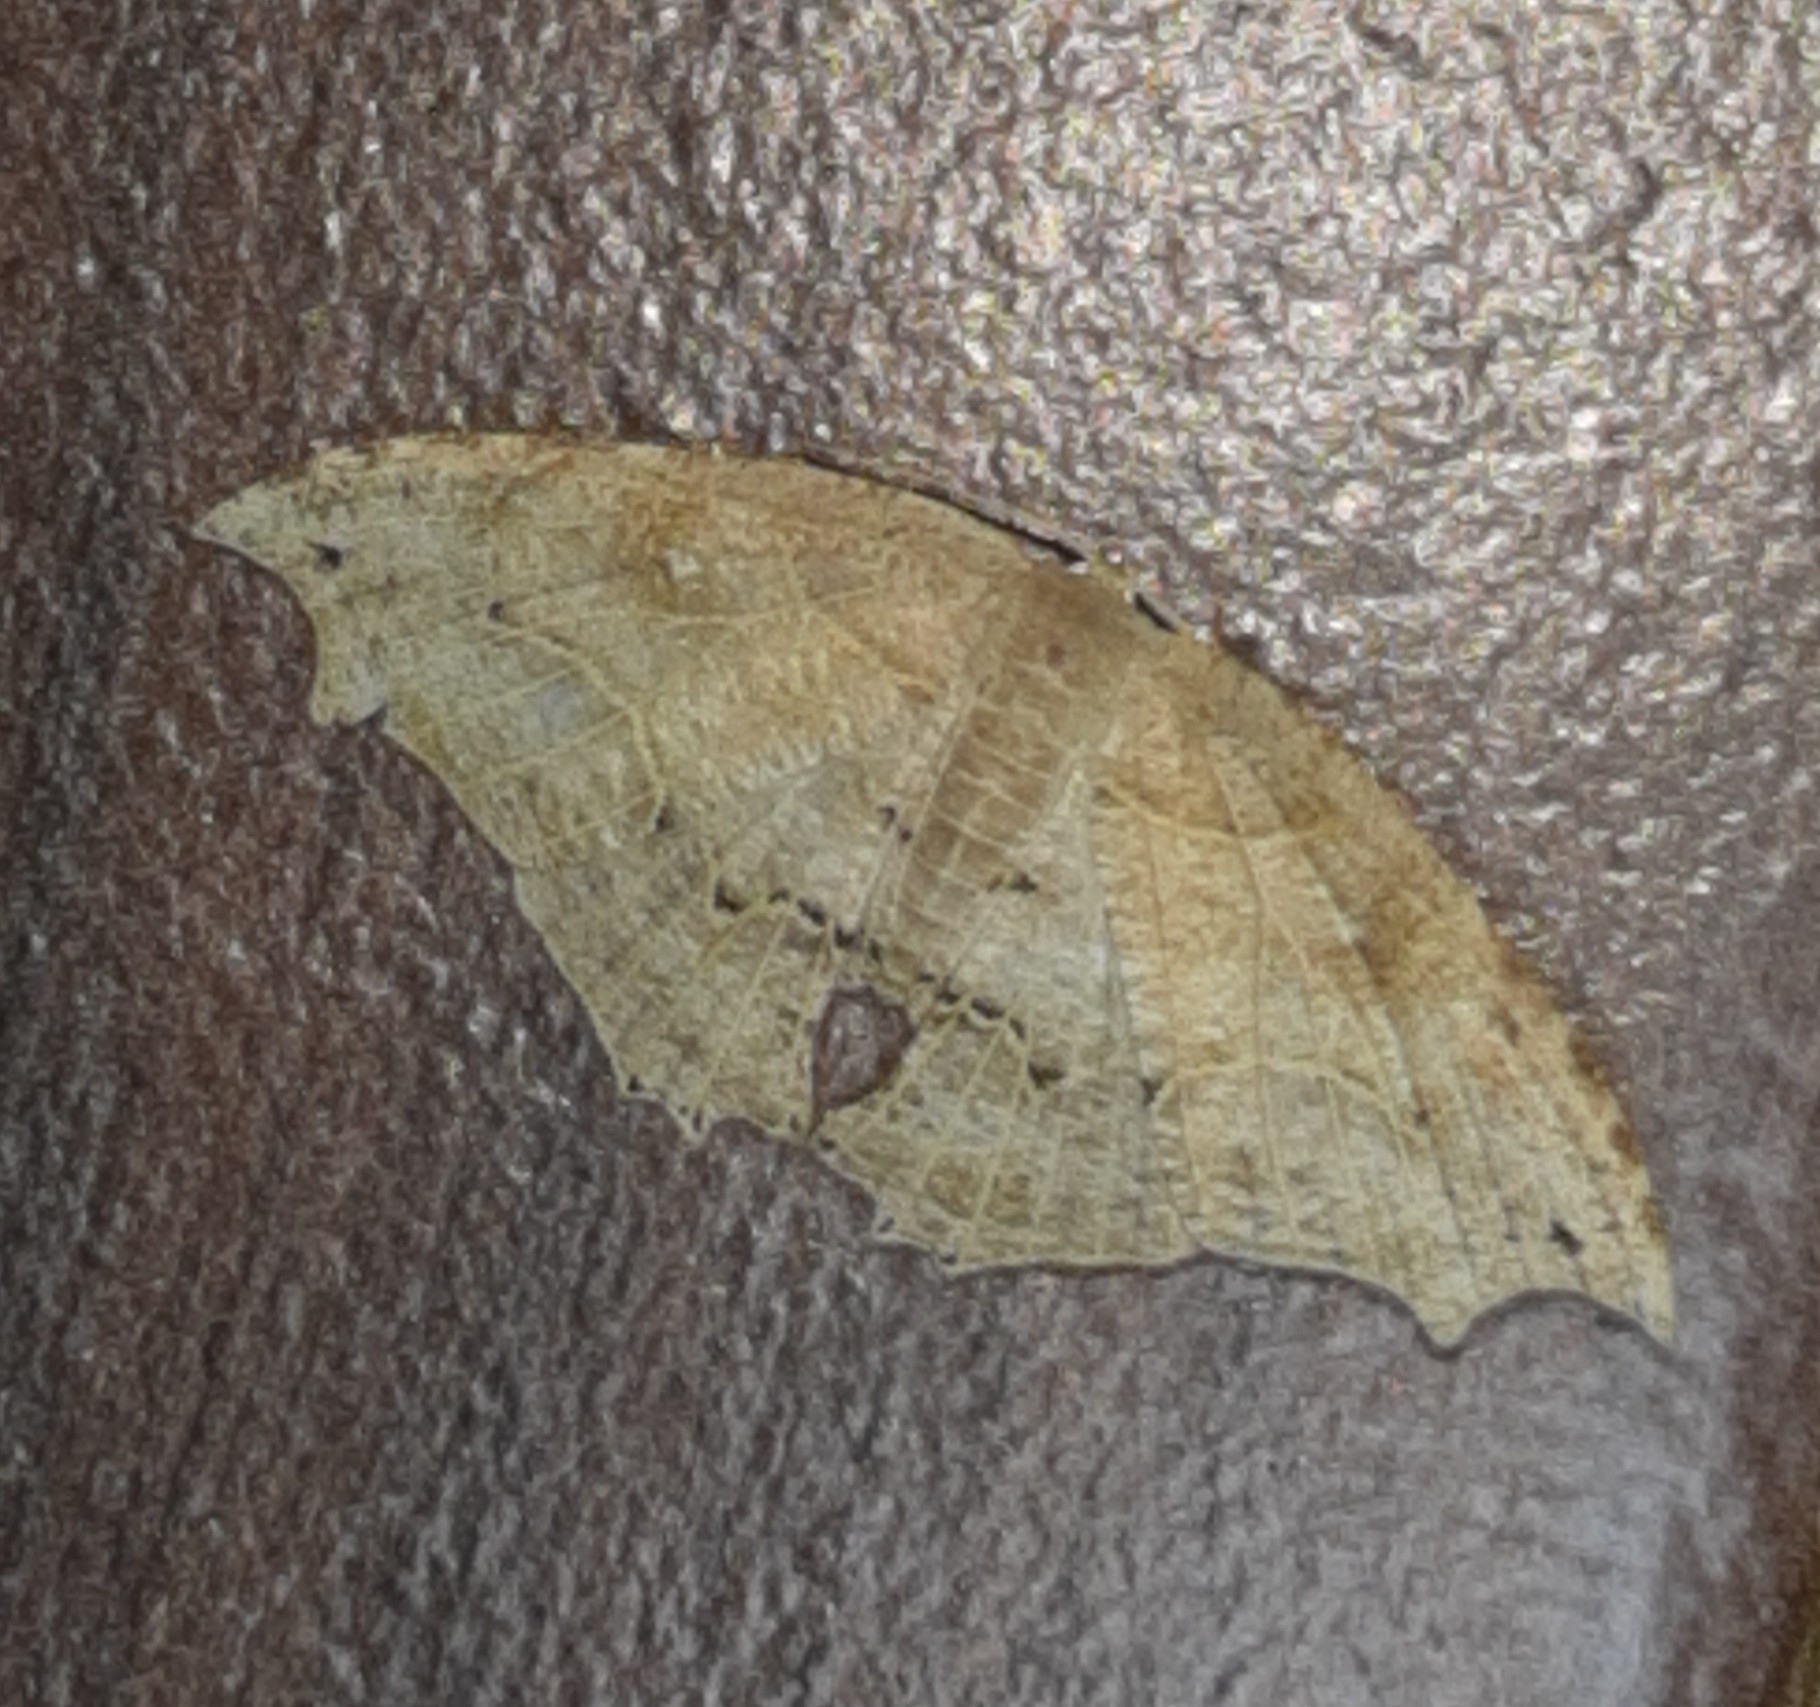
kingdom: Animalia
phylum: Arthropoda
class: Insecta
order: Lepidoptera
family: Uraniidae
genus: Coelurotricha
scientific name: Coelurotricha curvilinea
